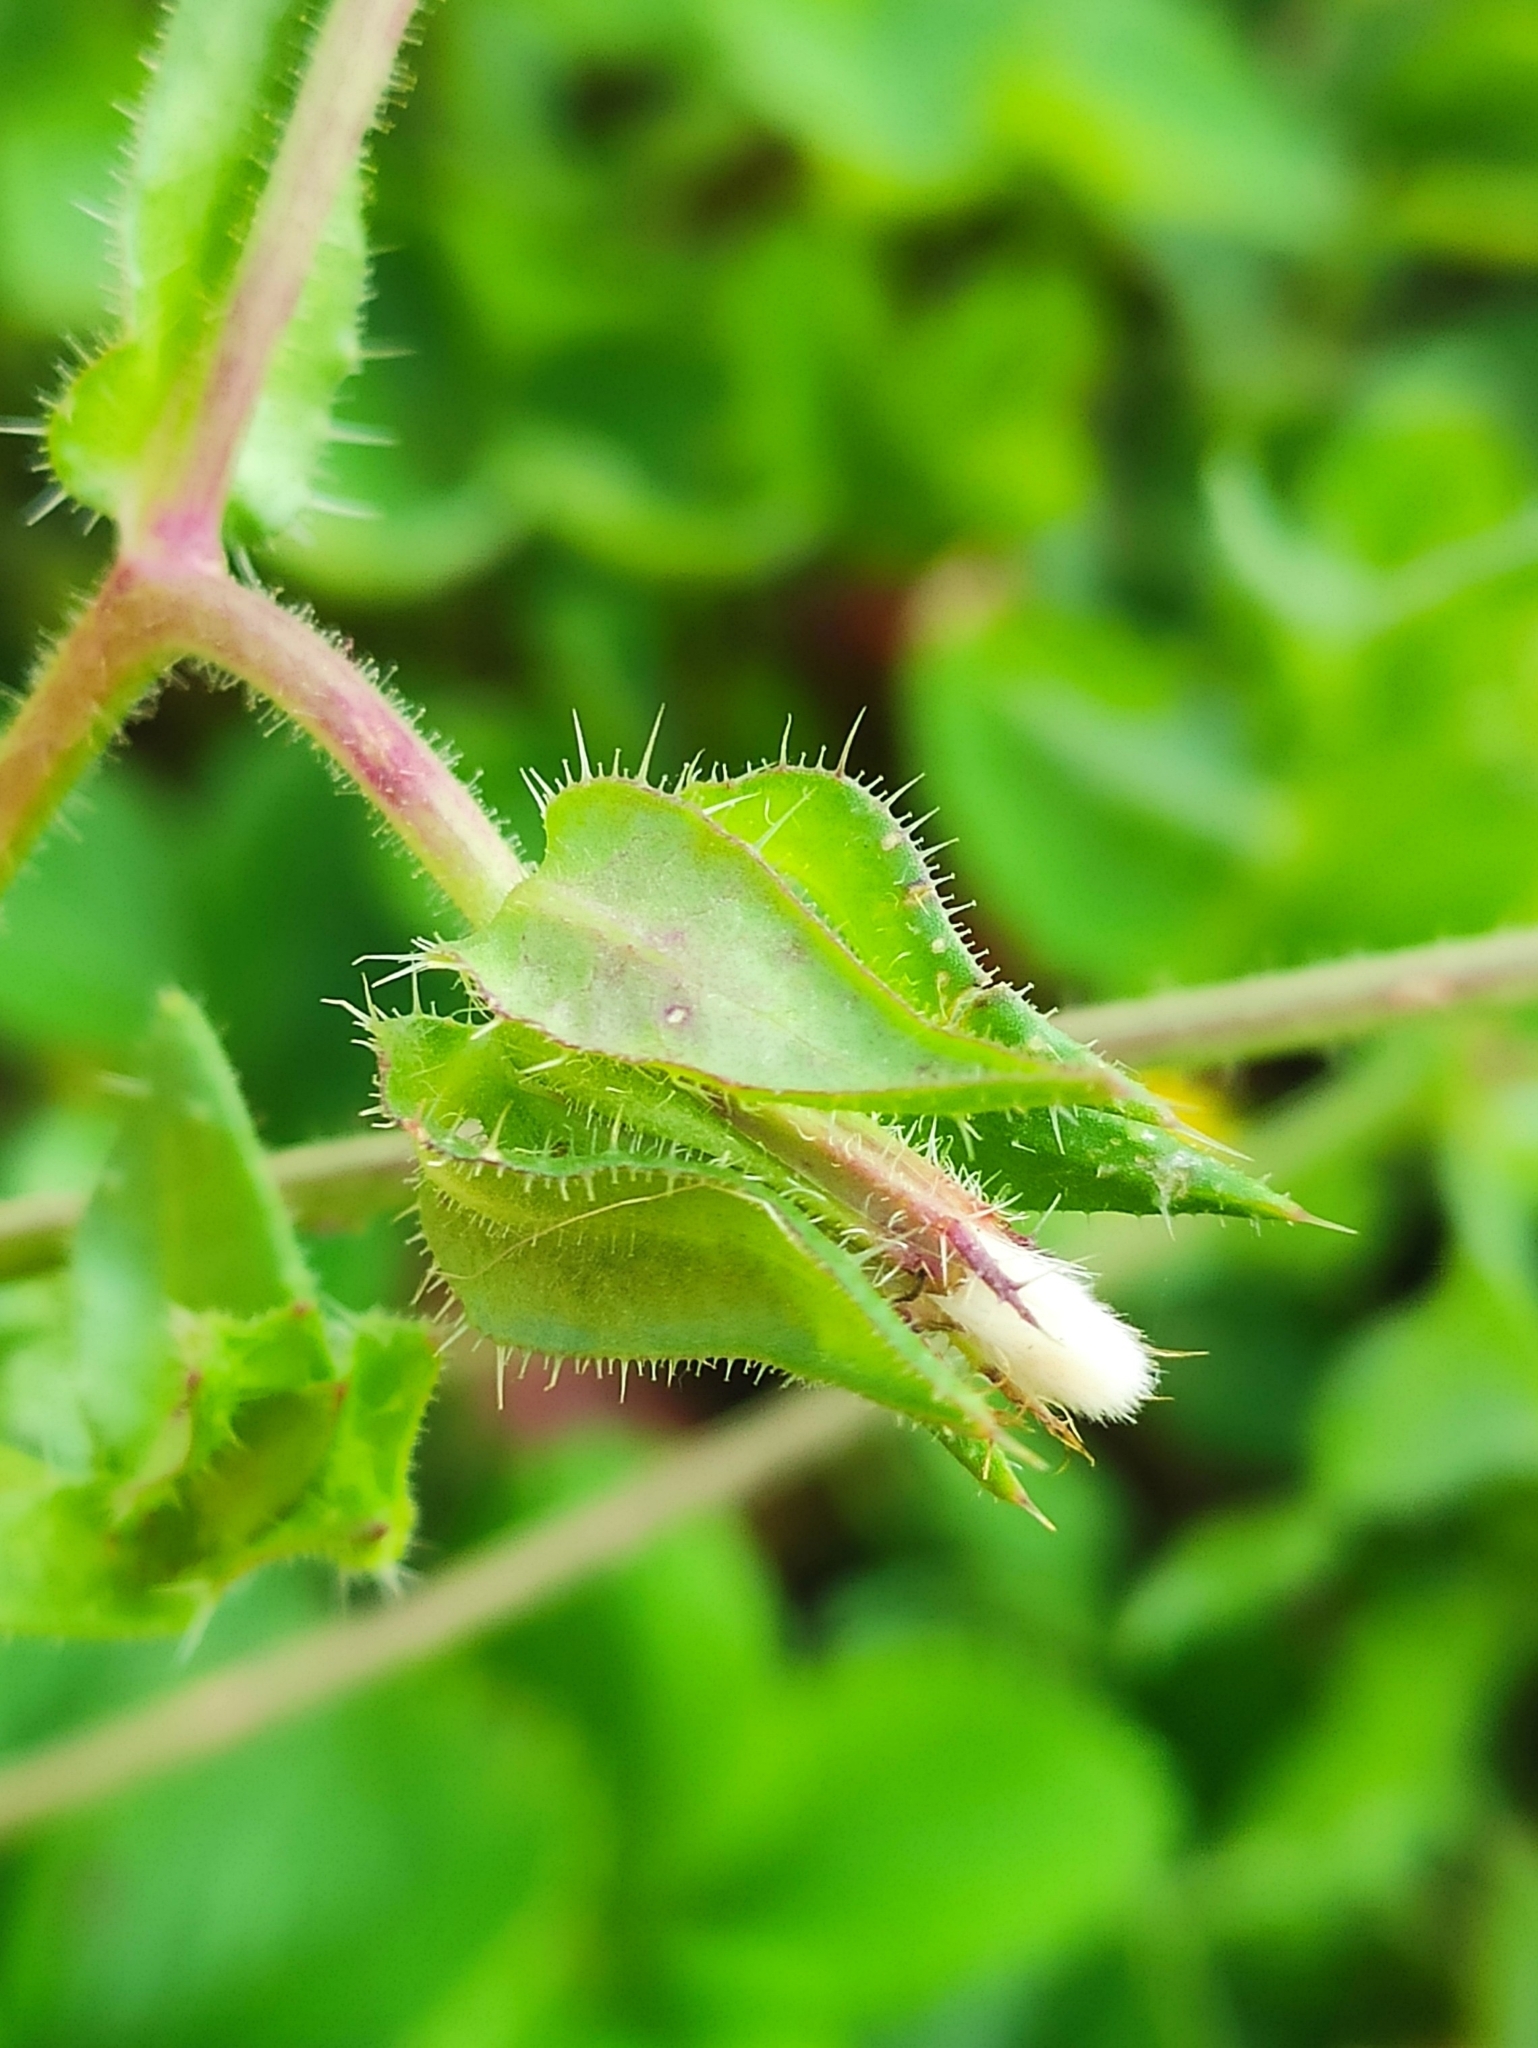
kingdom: Plantae
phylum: Tracheophyta
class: Magnoliopsida
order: Asterales
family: Asteraceae
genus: Helminthotheca
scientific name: Helminthotheca echioides
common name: Ox-tongue
